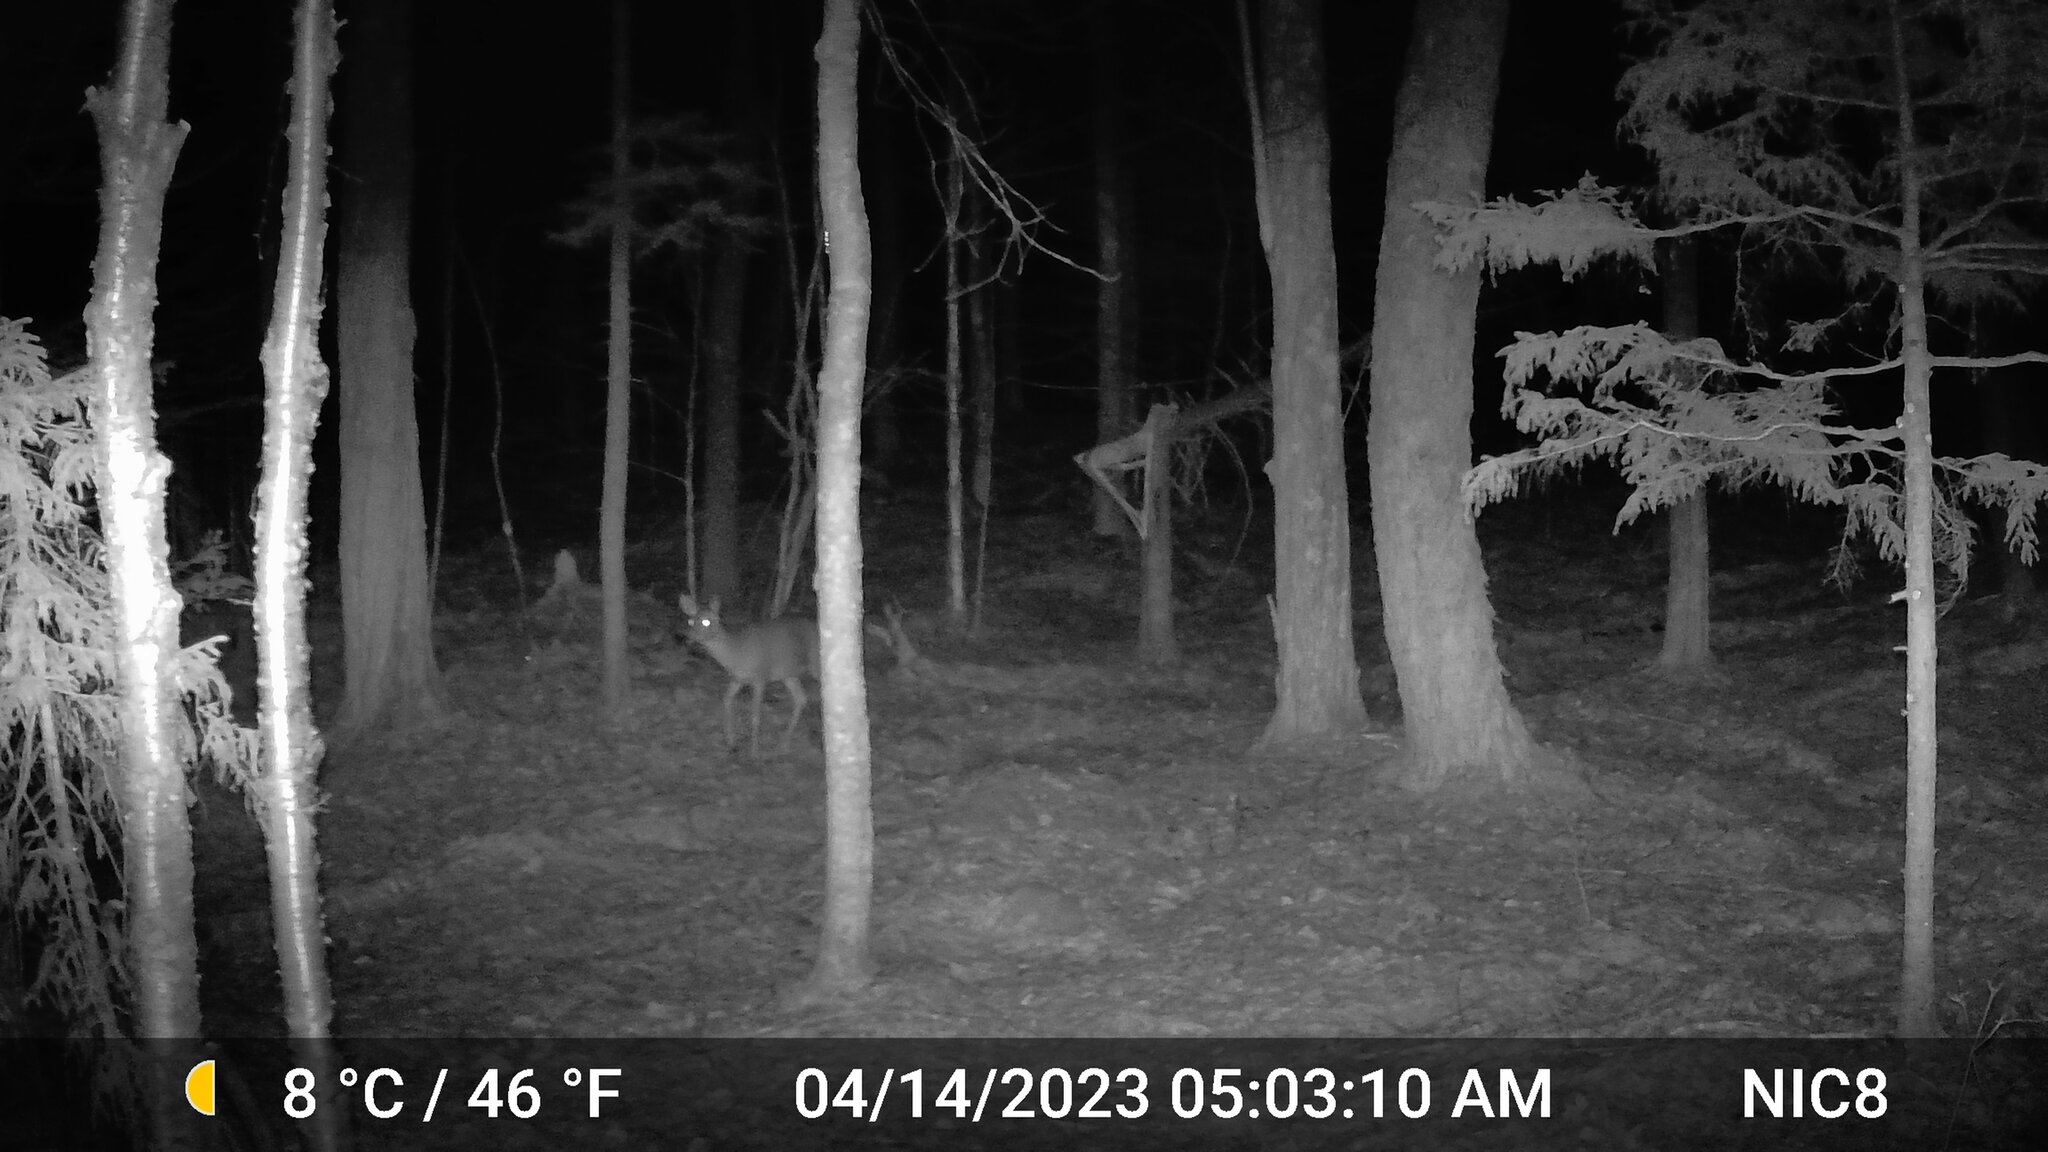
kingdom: Animalia
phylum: Chordata
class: Mammalia
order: Artiodactyla
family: Cervidae
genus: Odocoileus
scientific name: Odocoileus virginianus
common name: White-tailed deer
